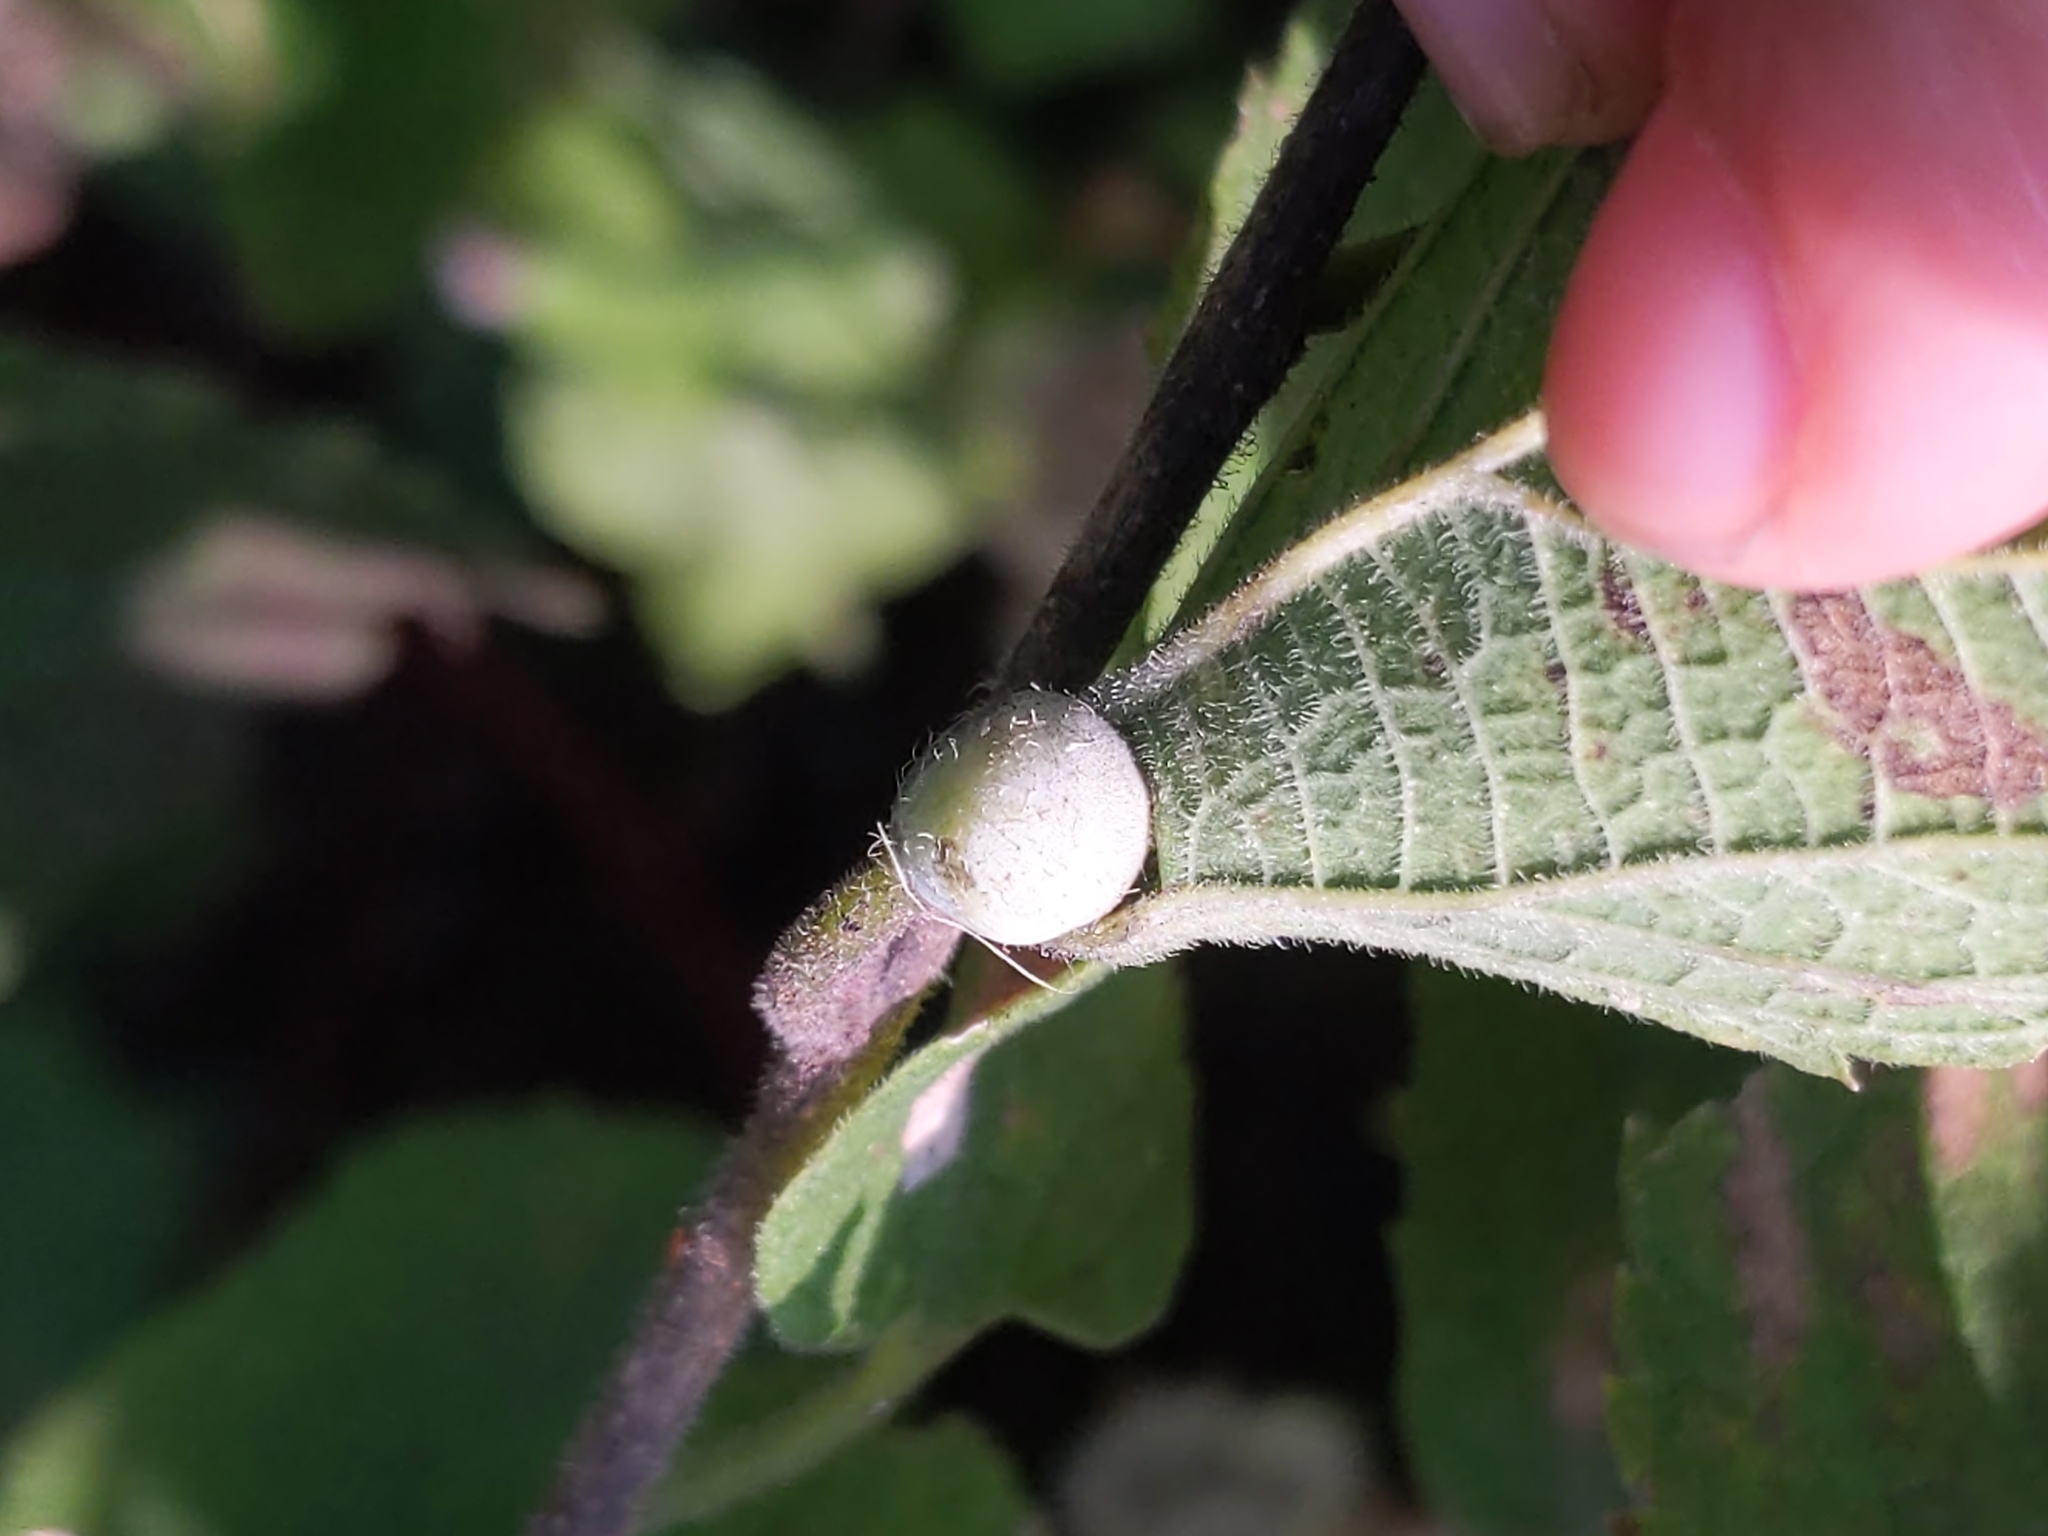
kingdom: Animalia
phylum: Arthropoda
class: Insecta
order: Hemiptera
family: Aphalaridae
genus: Pachypsylla
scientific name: Pachypsylla venusta
